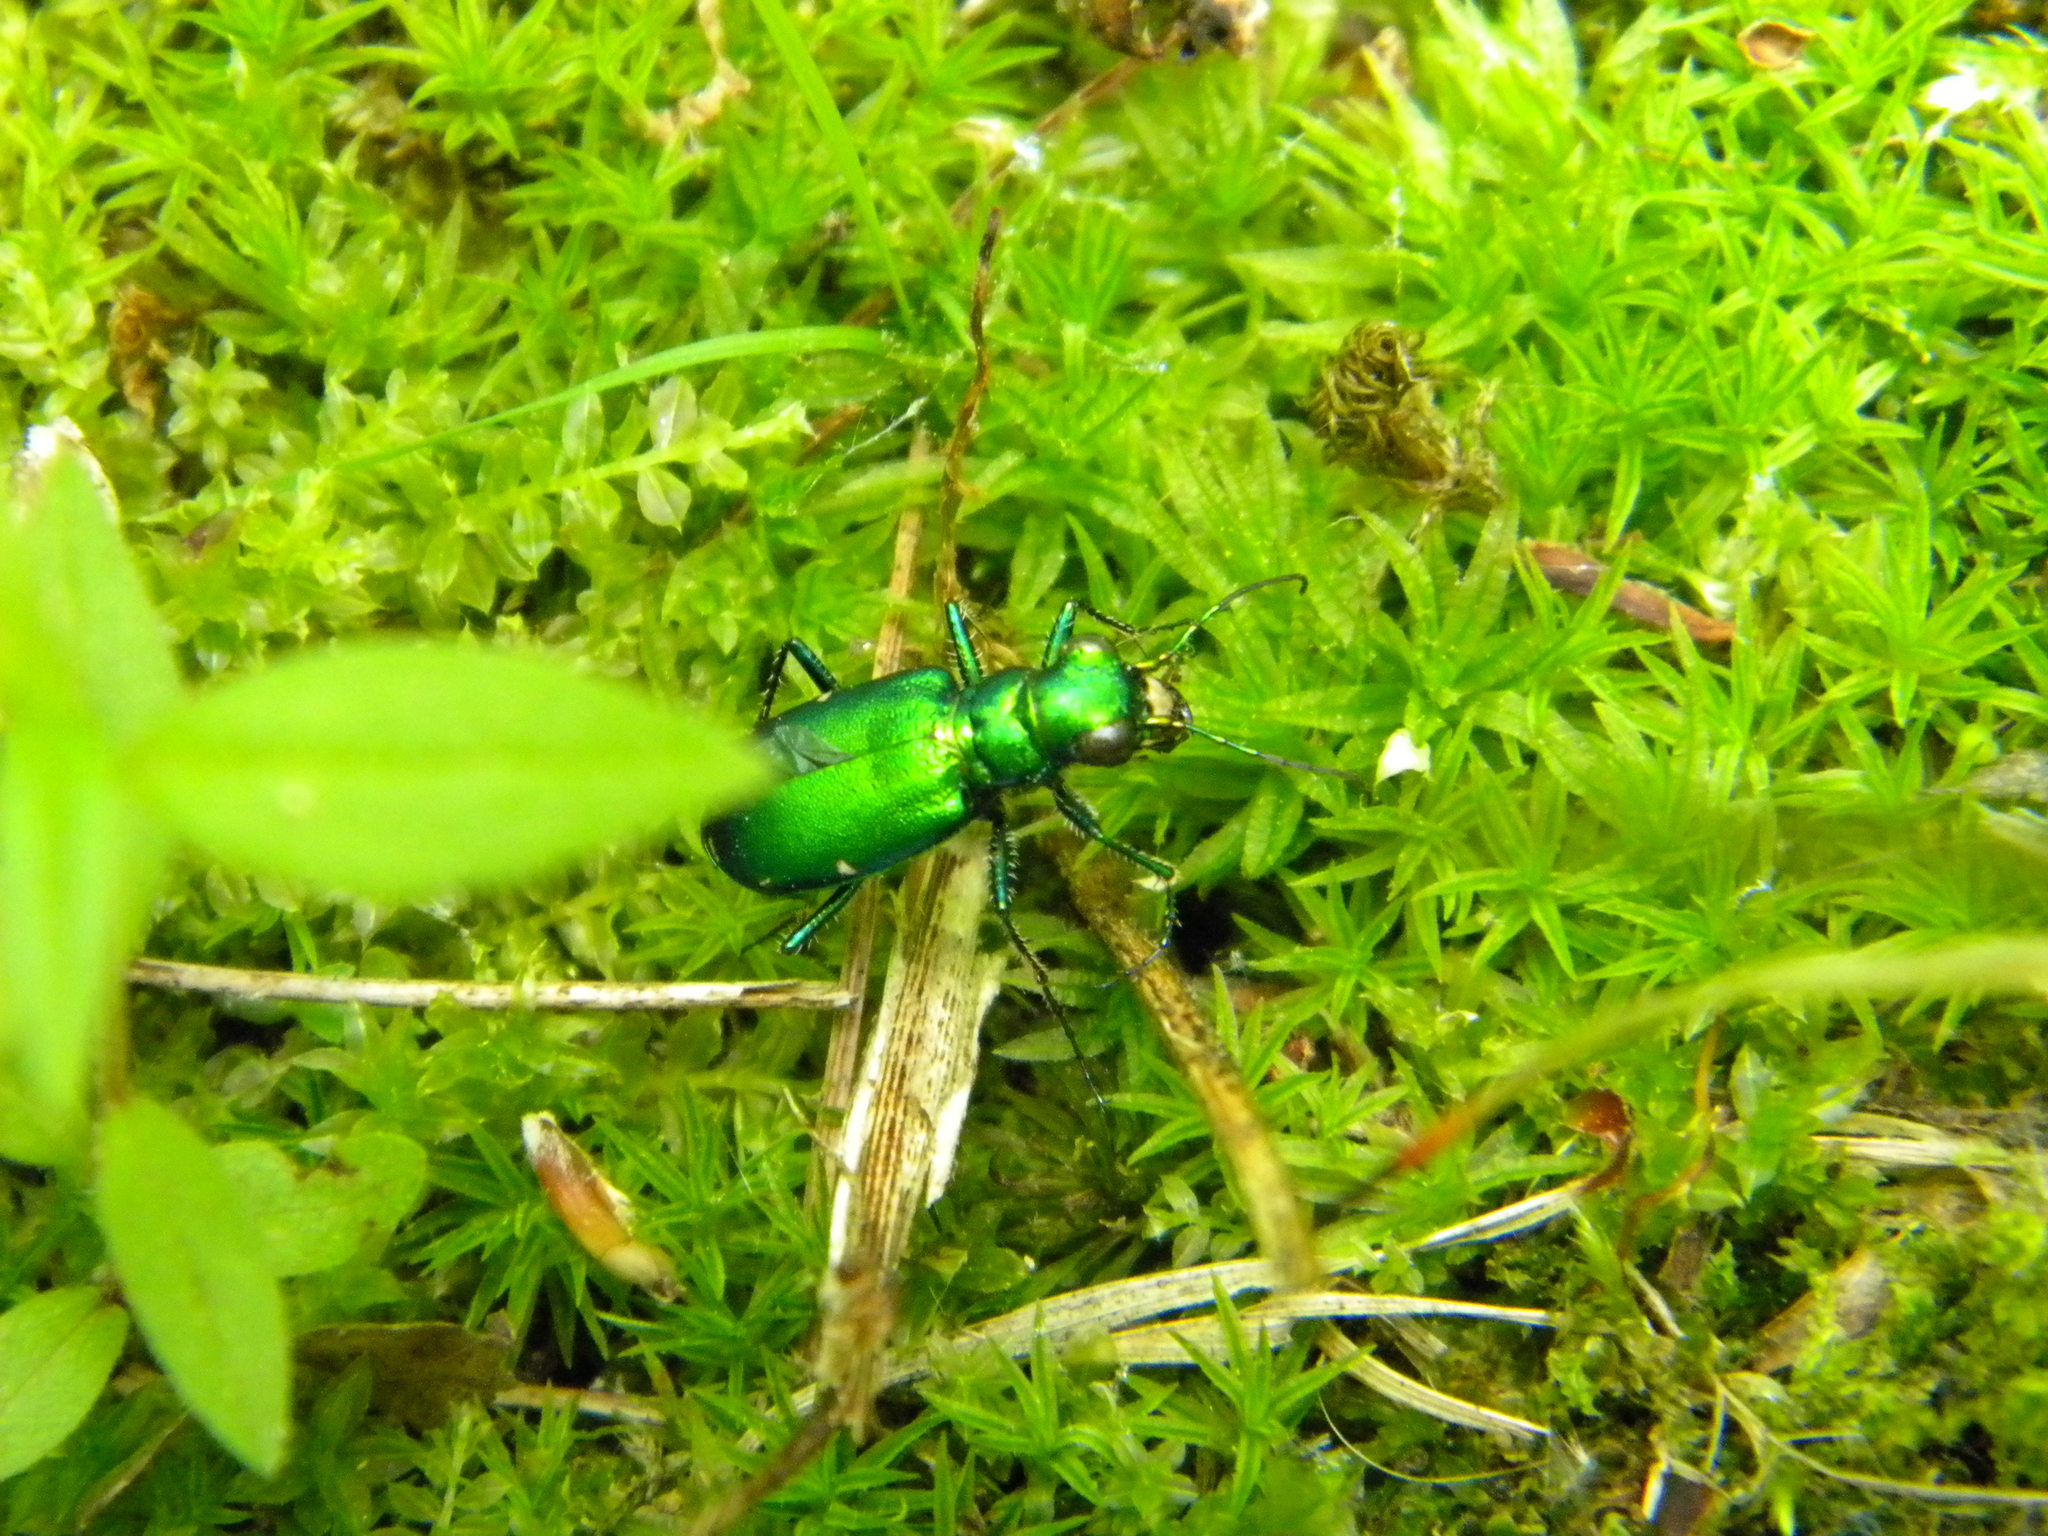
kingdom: Animalia
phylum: Arthropoda
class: Insecta
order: Coleoptera
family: Carabidae
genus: Cicindela
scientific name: Cicindela sexguttata
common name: Six-spotted tiger beetle
